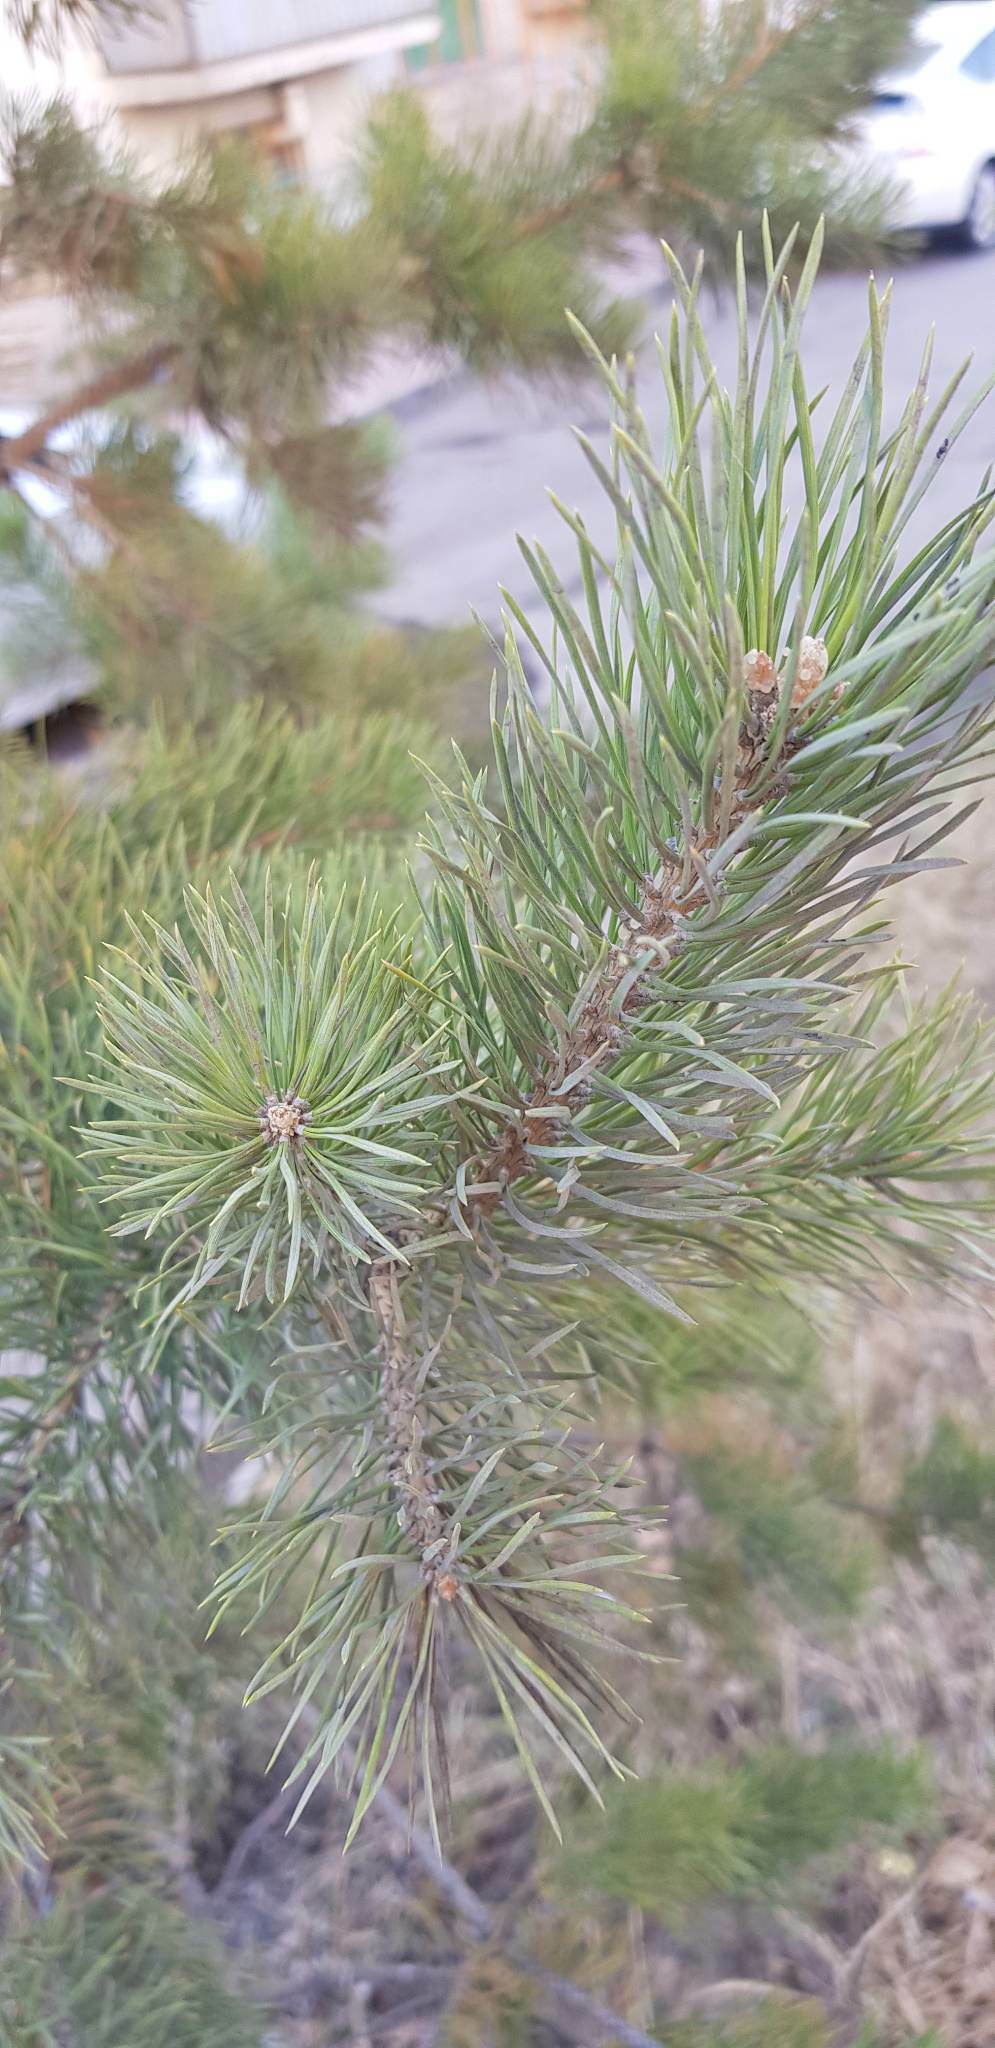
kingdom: Plantae
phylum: Tracheophyta
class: Pinopsida
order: Pinales
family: Pinaceae
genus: Pinus
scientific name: Pinus sylvestris
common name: Scots pine
